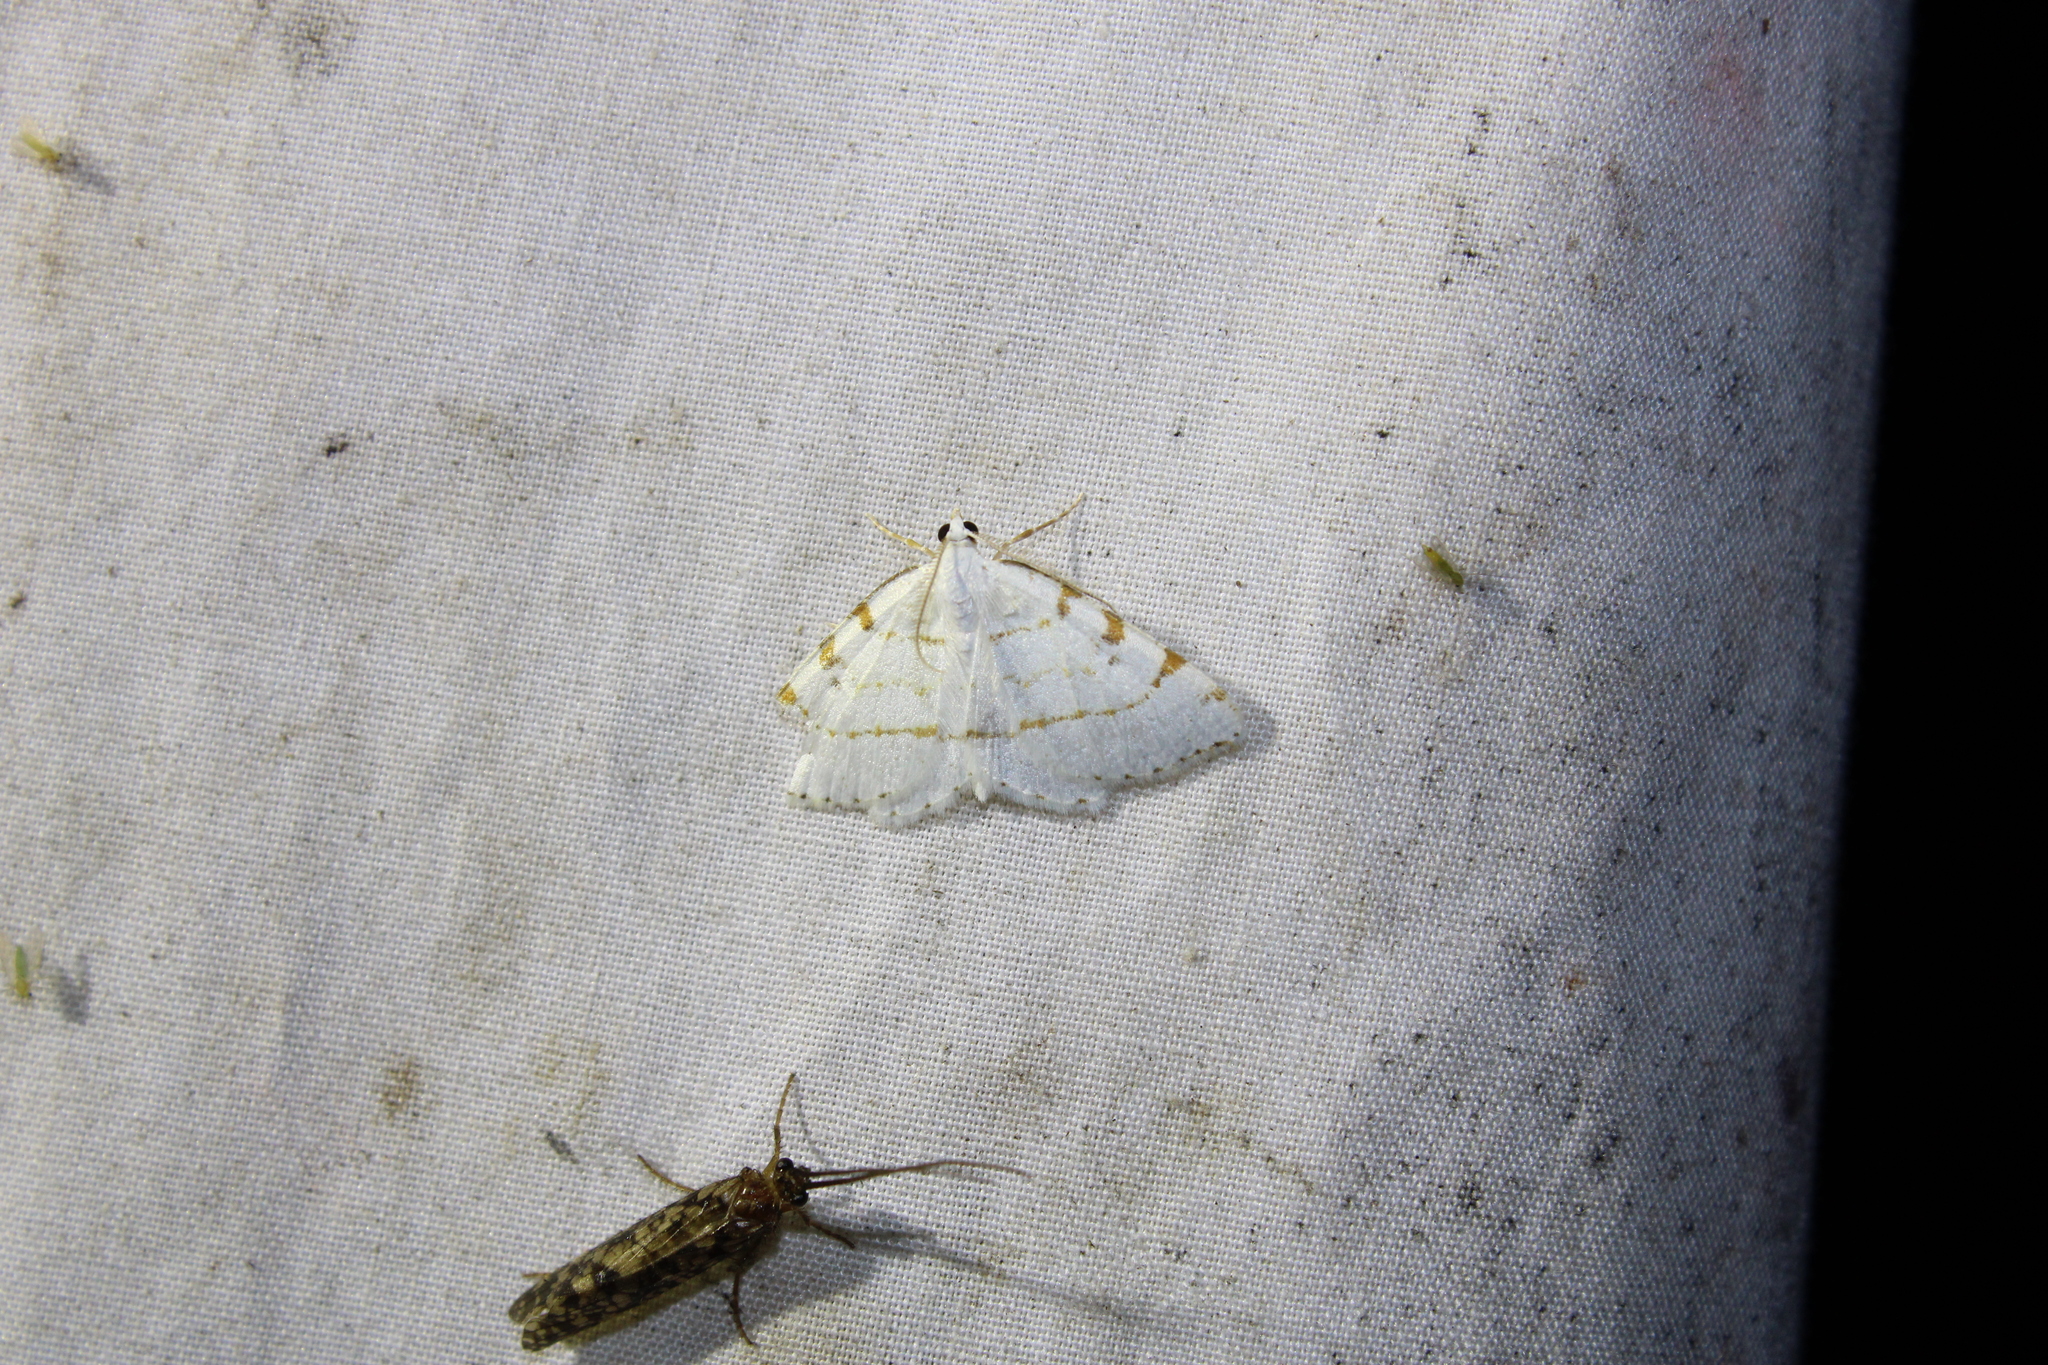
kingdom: Animalia
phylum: Arthropoda
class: Insecta
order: Lepidoptera
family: Geometridae
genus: Macaria
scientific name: Macaria pustularia
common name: Lesser maple spanworm moth
